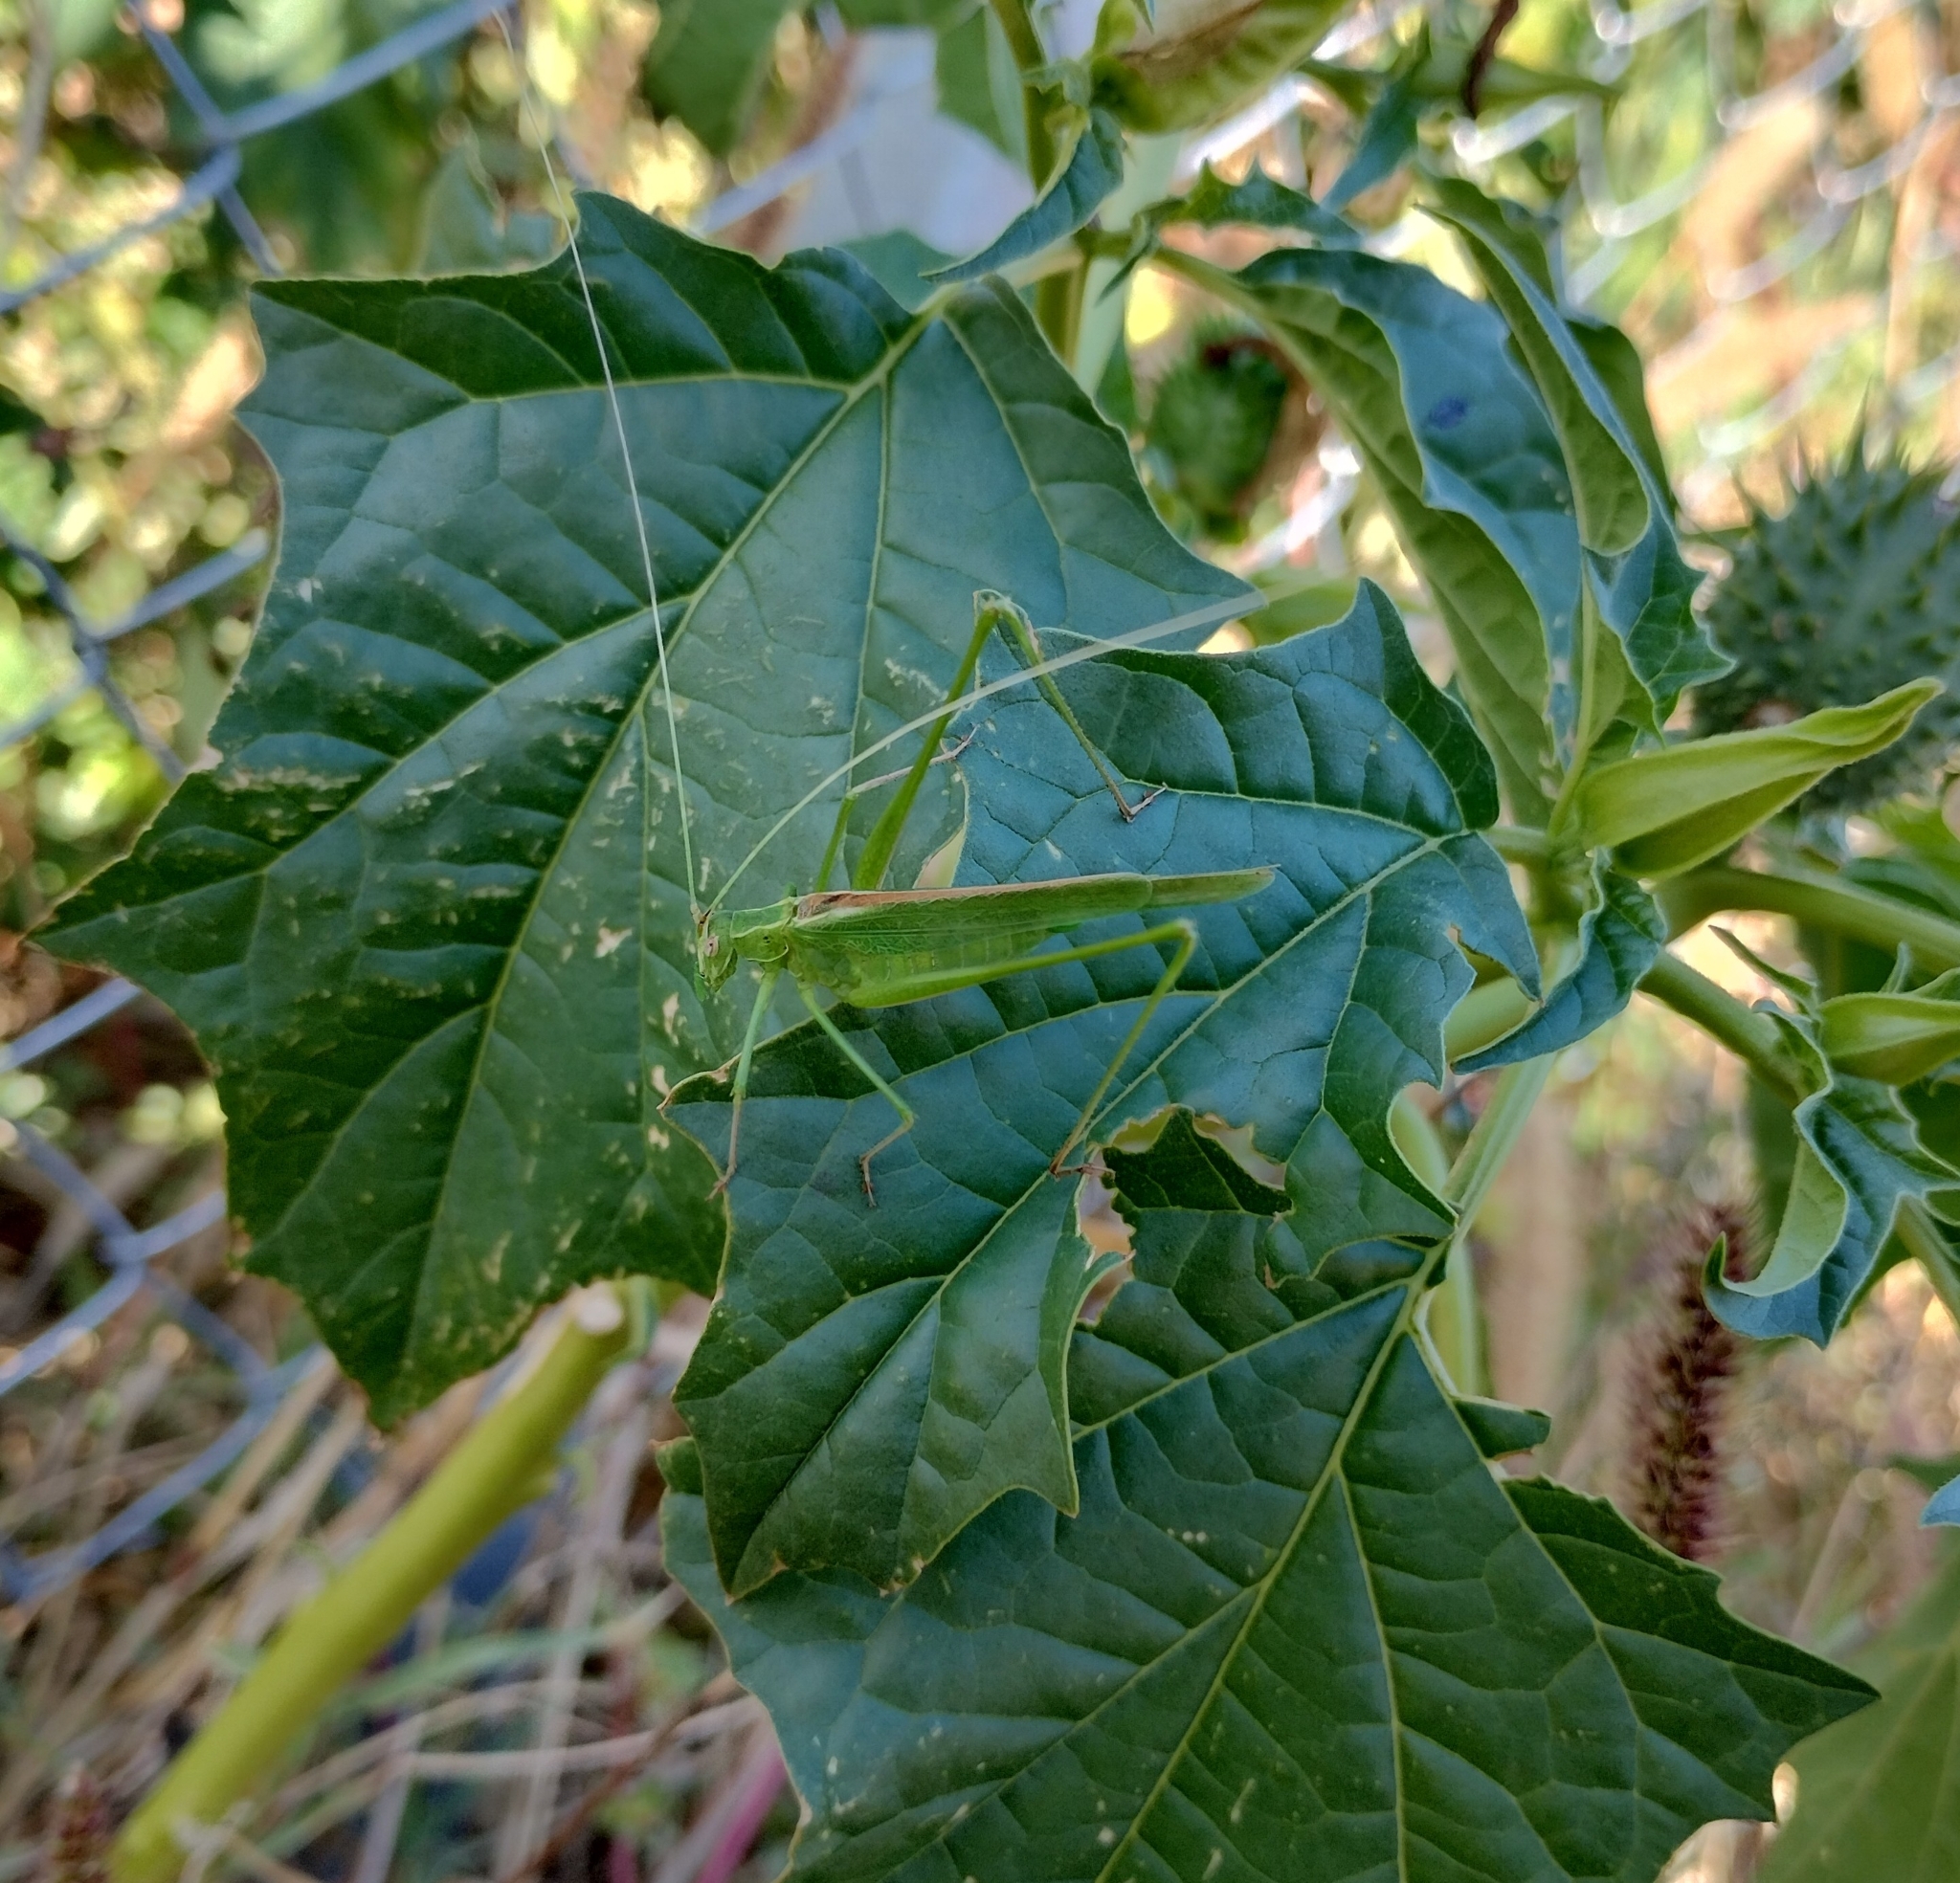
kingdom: Animalia
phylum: Arthropoda
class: Insecta
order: Orthoptera
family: Tettigoniidae
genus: Tylopsis
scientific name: Tylopsis lilifolia
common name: Lily bush-cricket
